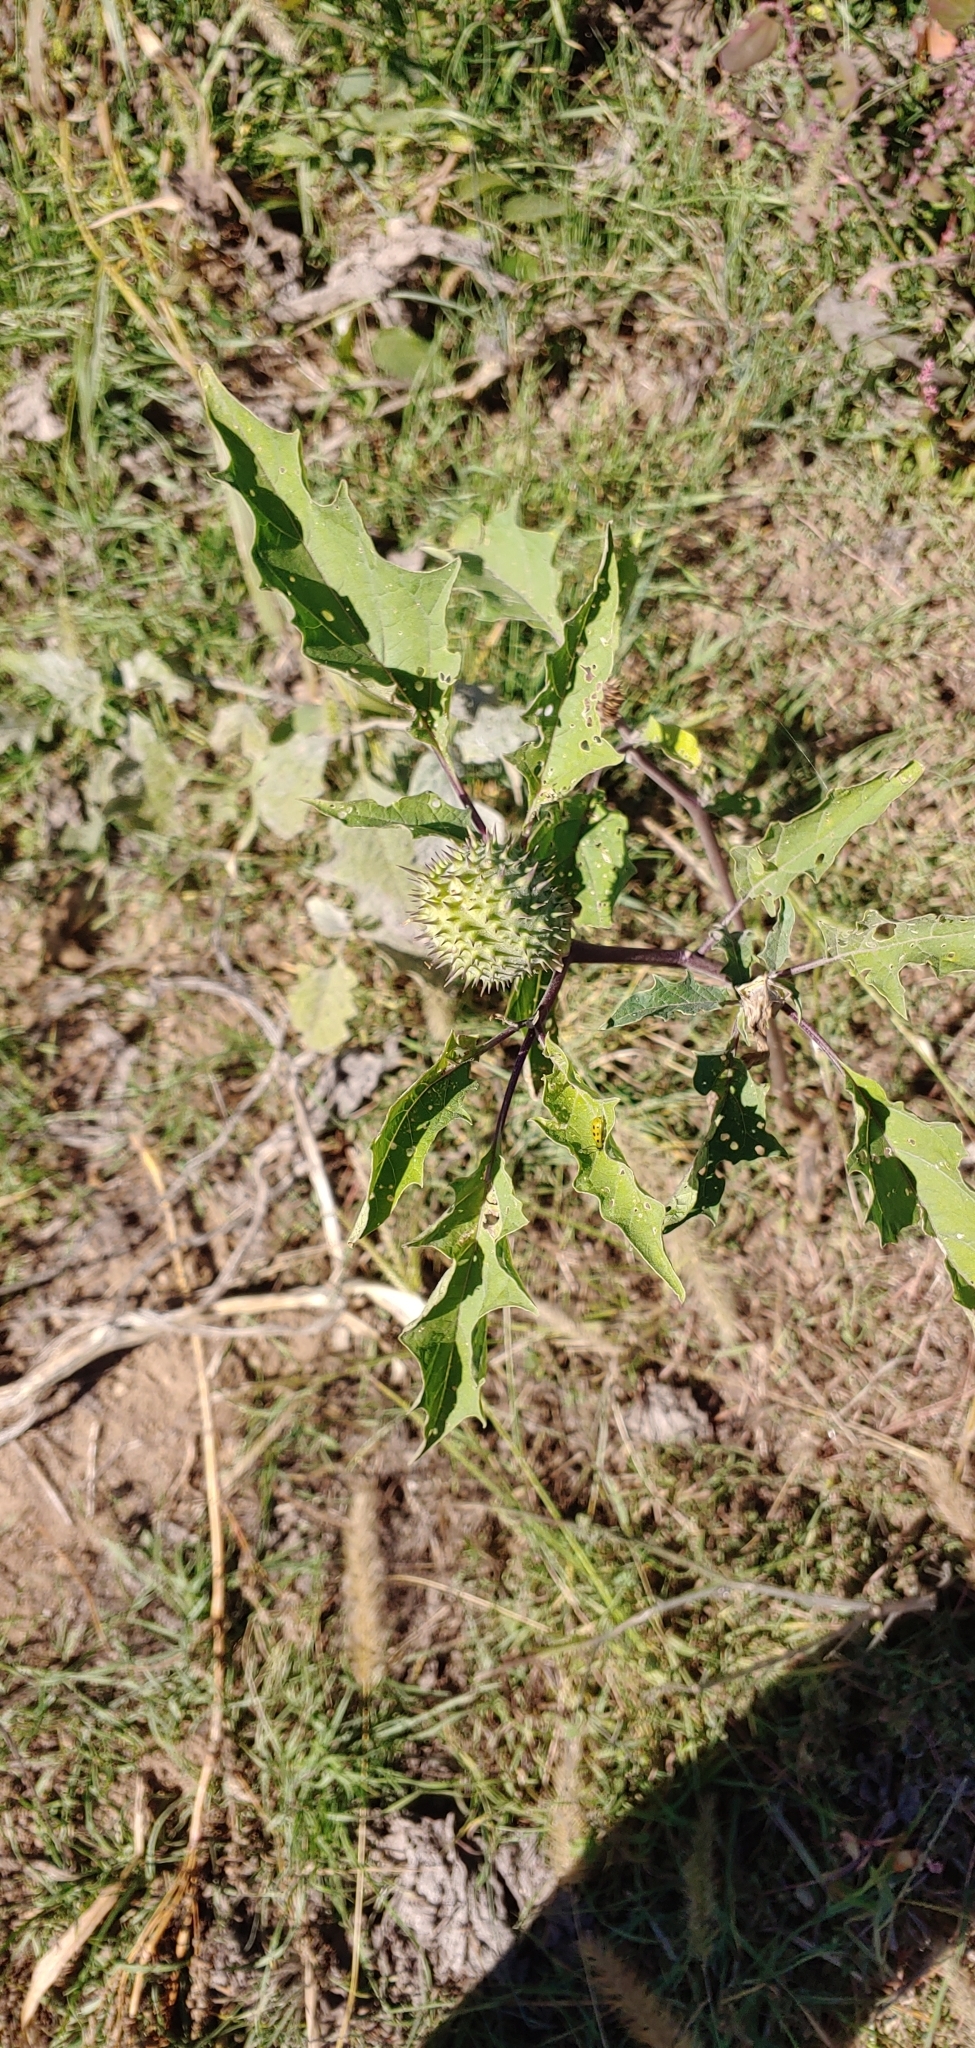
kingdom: Plantae
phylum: Tracheophyta
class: Magnoliopsida
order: Solanales
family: Solanaceae
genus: Datura
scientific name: Datura stramonium
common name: Thorn-apple
